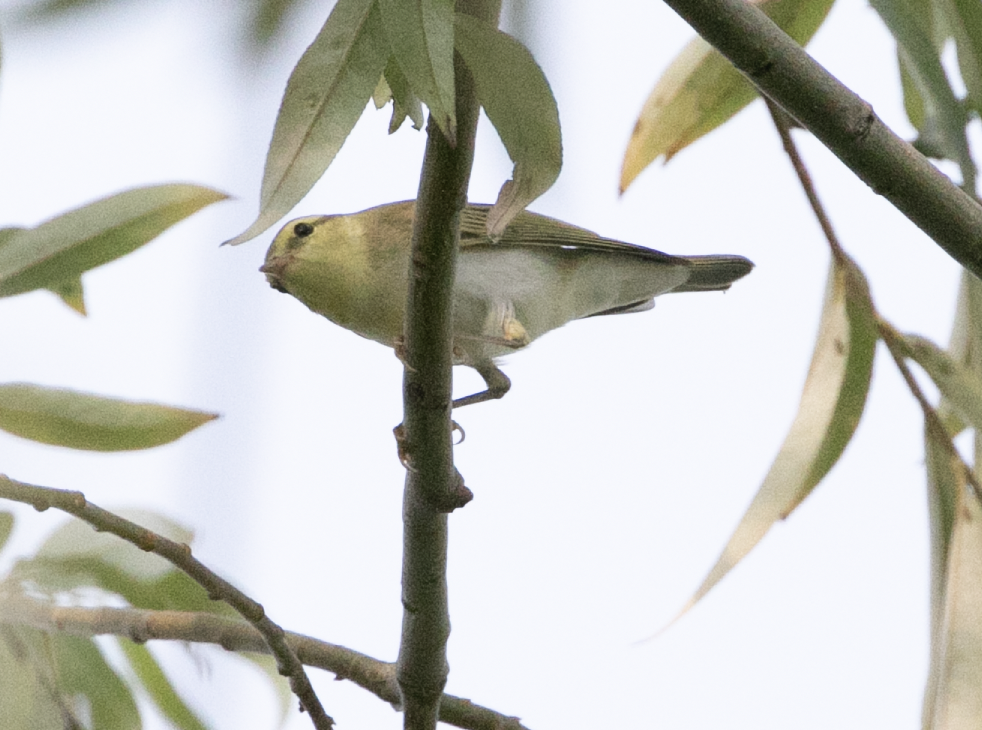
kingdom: Animalia
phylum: Chordata
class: Aves
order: Passeriformes
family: Phylloscopidae
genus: Phylloscopus
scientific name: Phylloscopus sibillatrix
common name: Wood warbler
